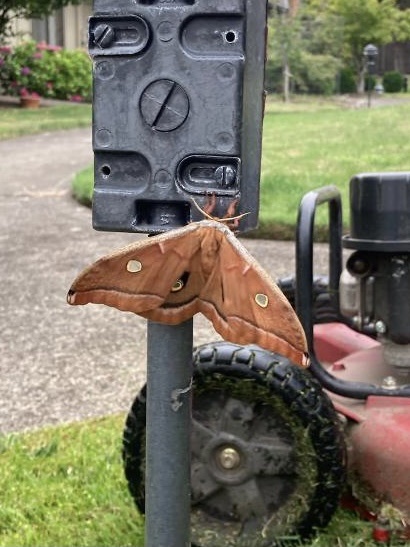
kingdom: Animalia
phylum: Arthropoda
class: Insecta
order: Lepidoptera
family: Saturniidae
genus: Antheraea
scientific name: Antheraea polyphemus
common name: Polyphemus moth
